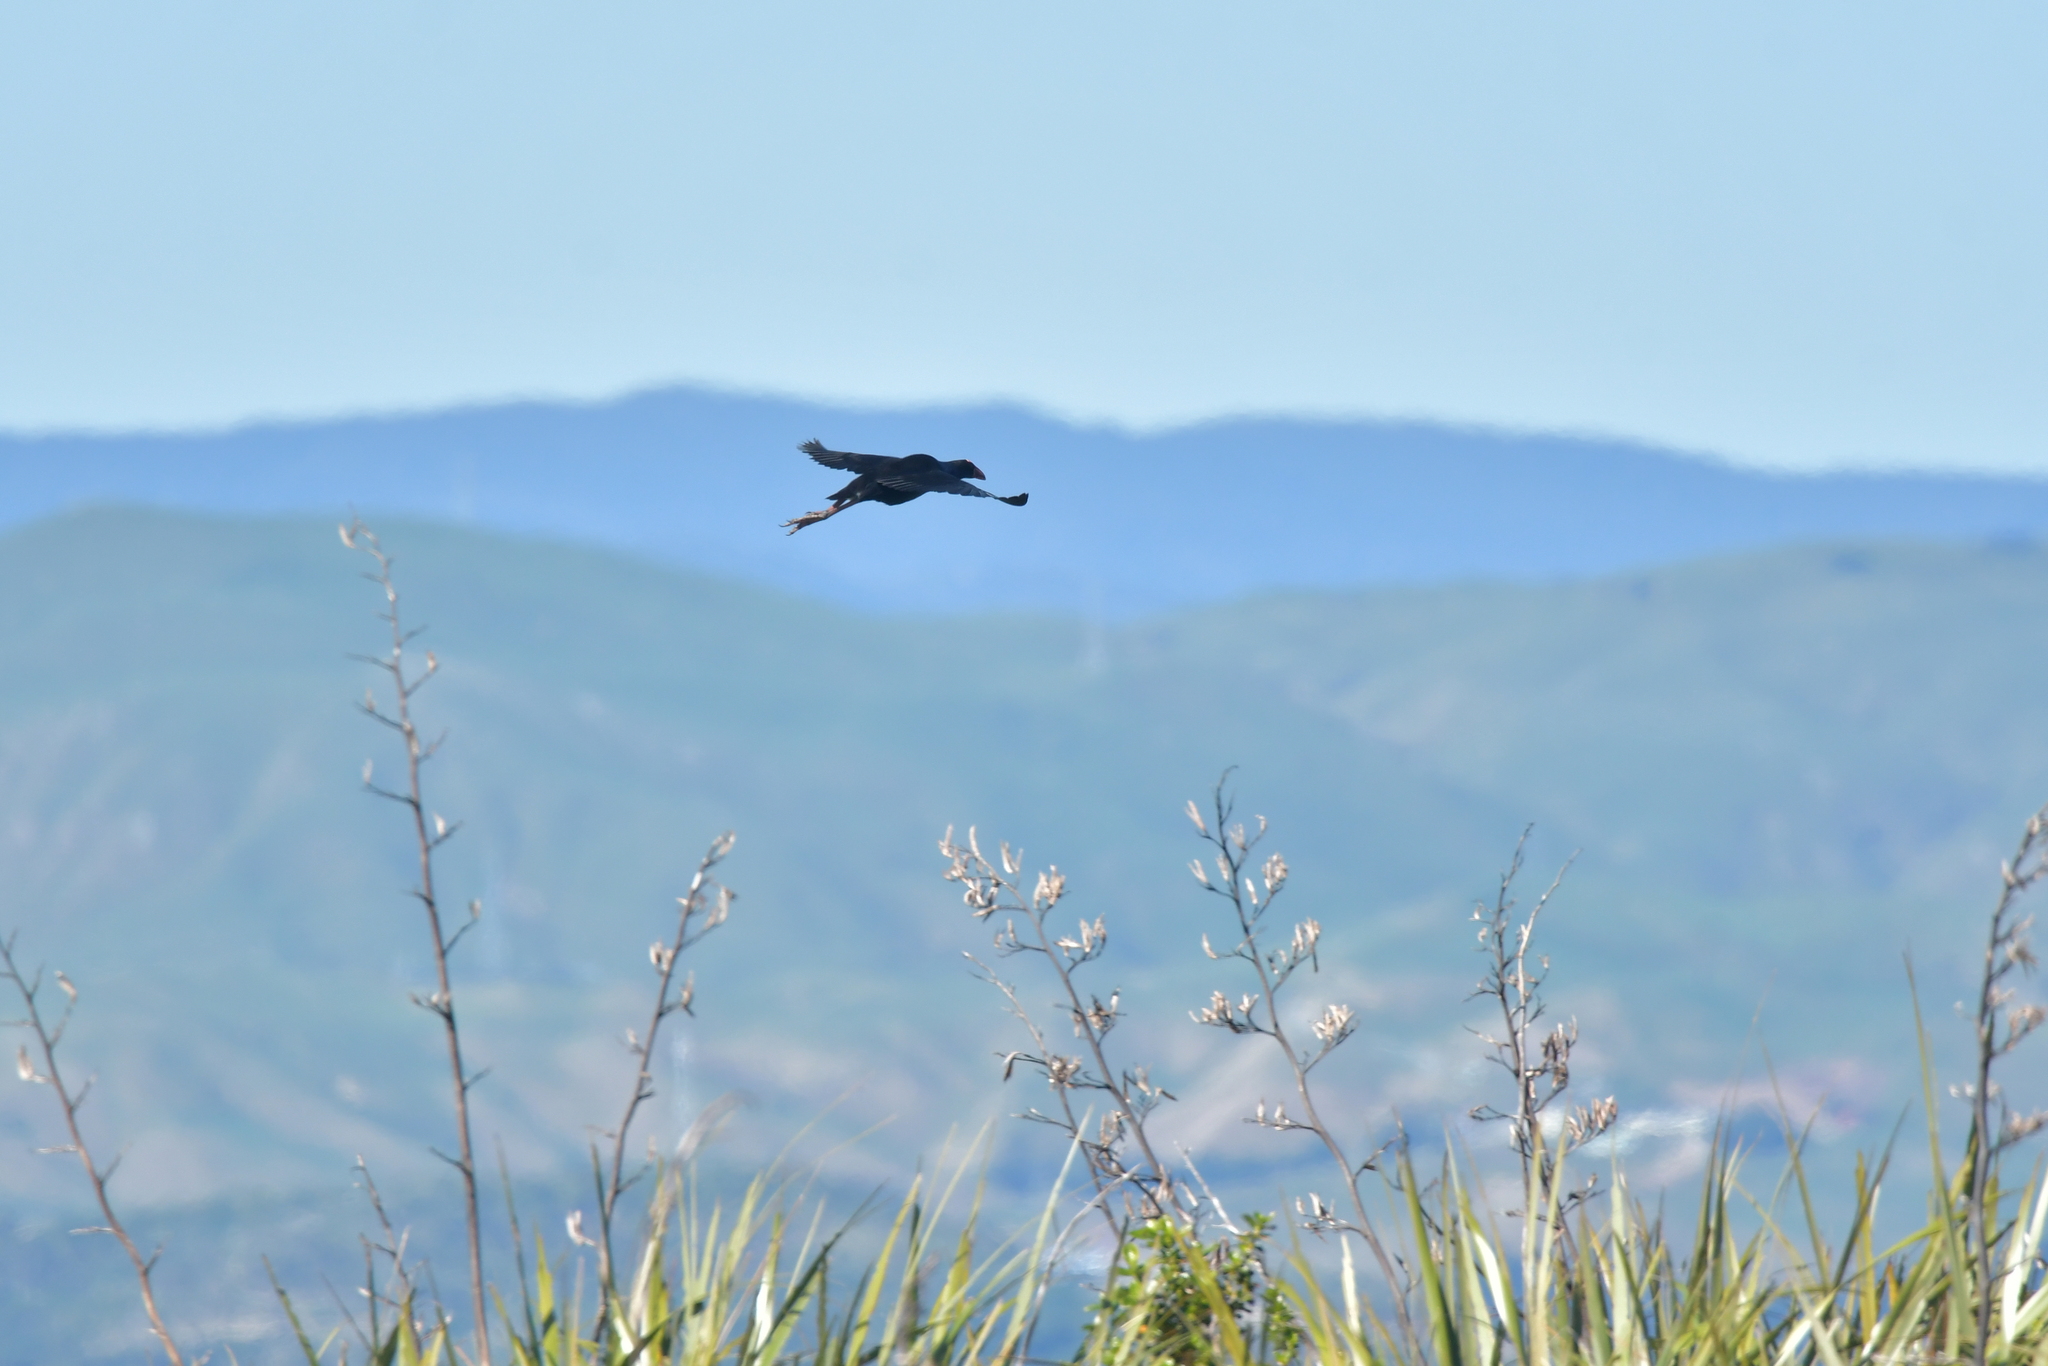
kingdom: Animalia
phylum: Chordata
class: Aves
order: Gruiformes
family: Rallidae
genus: Porphyrio
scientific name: Porphyrio melanotus
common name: Australasian swamphen
